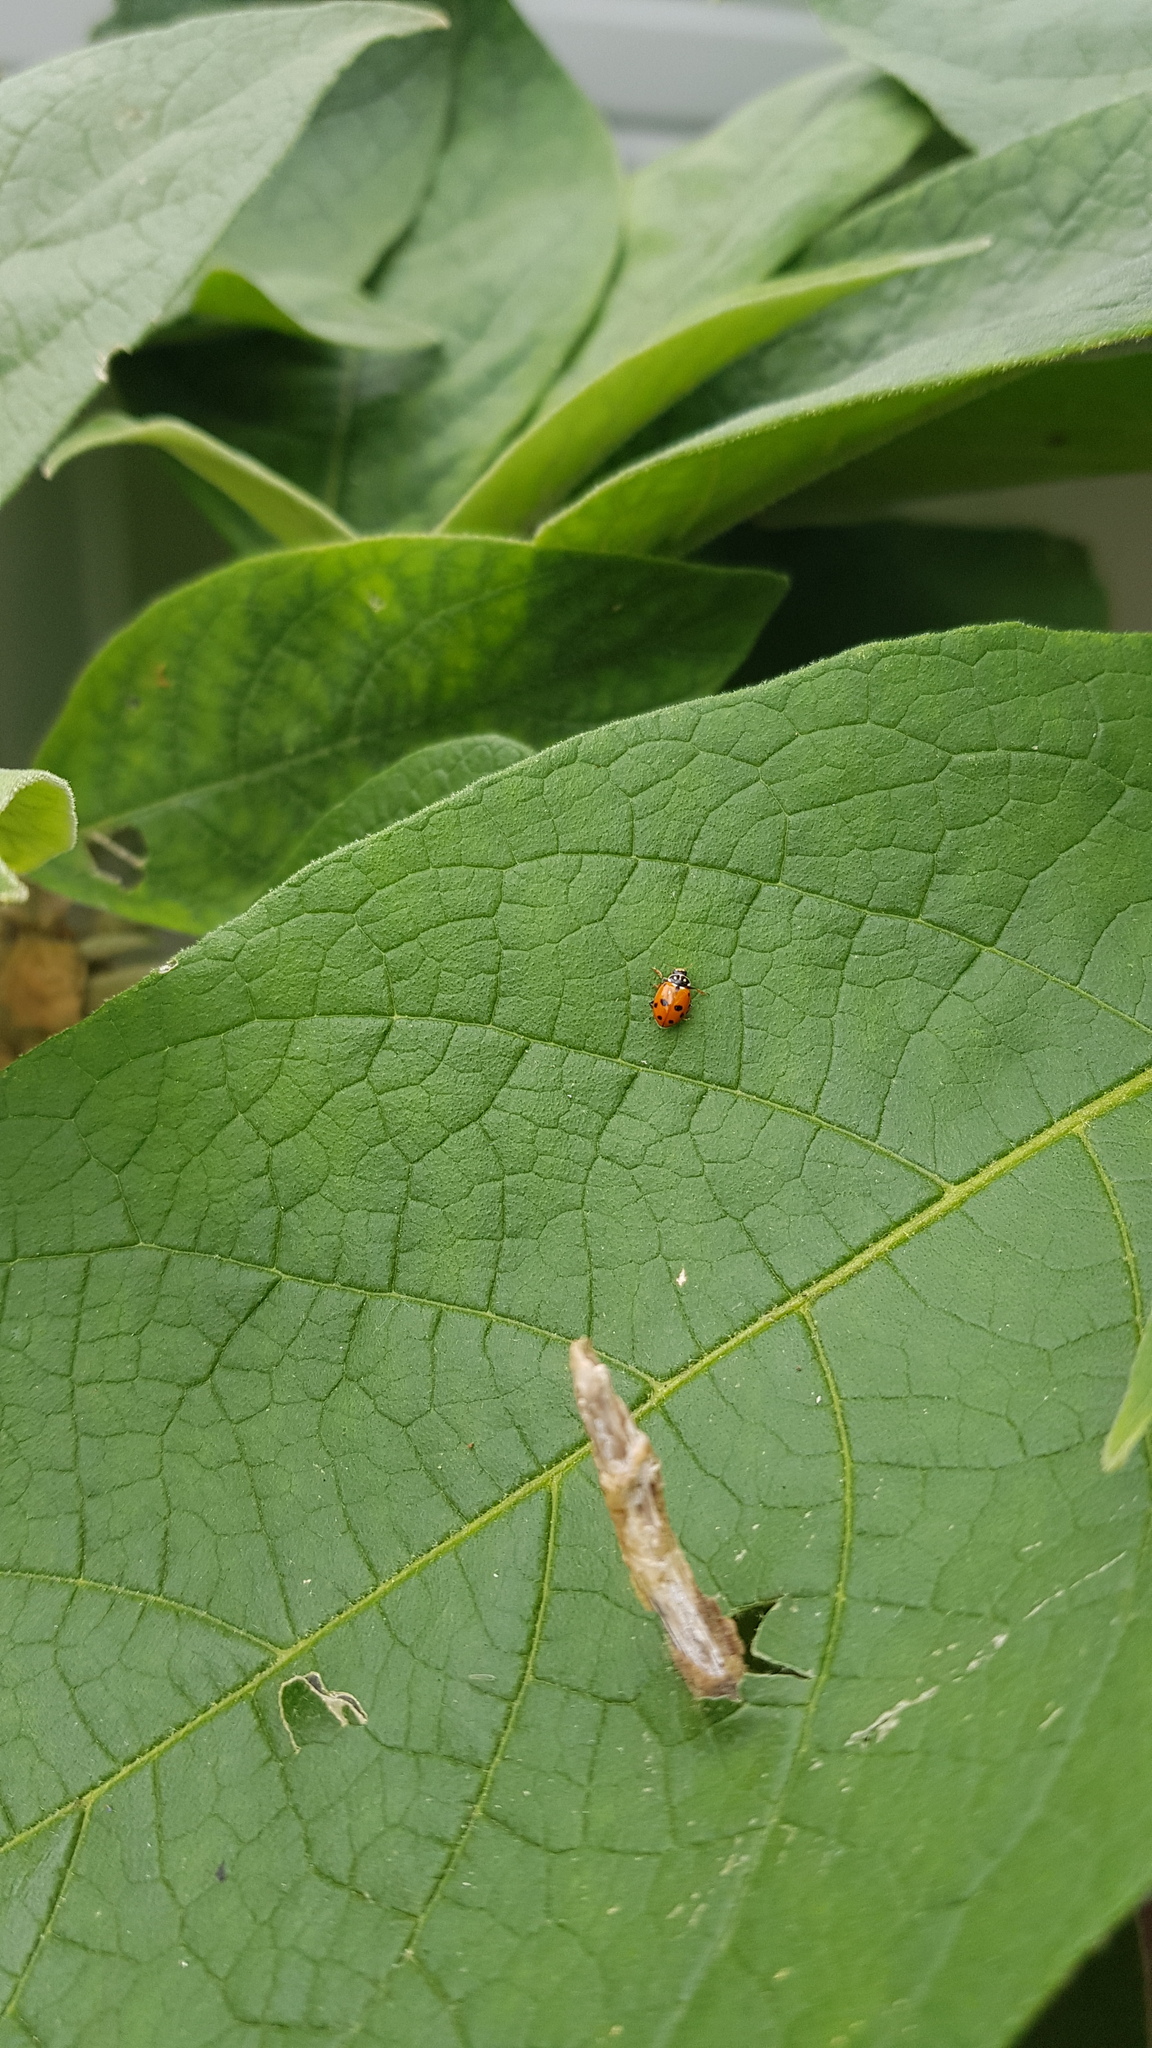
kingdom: Animalia
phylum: Arthropoda
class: Insecta
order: Coleoptera
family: Coccinellidae
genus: Hippodamia
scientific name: Hippodamia variegata
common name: Ladybird beetle
